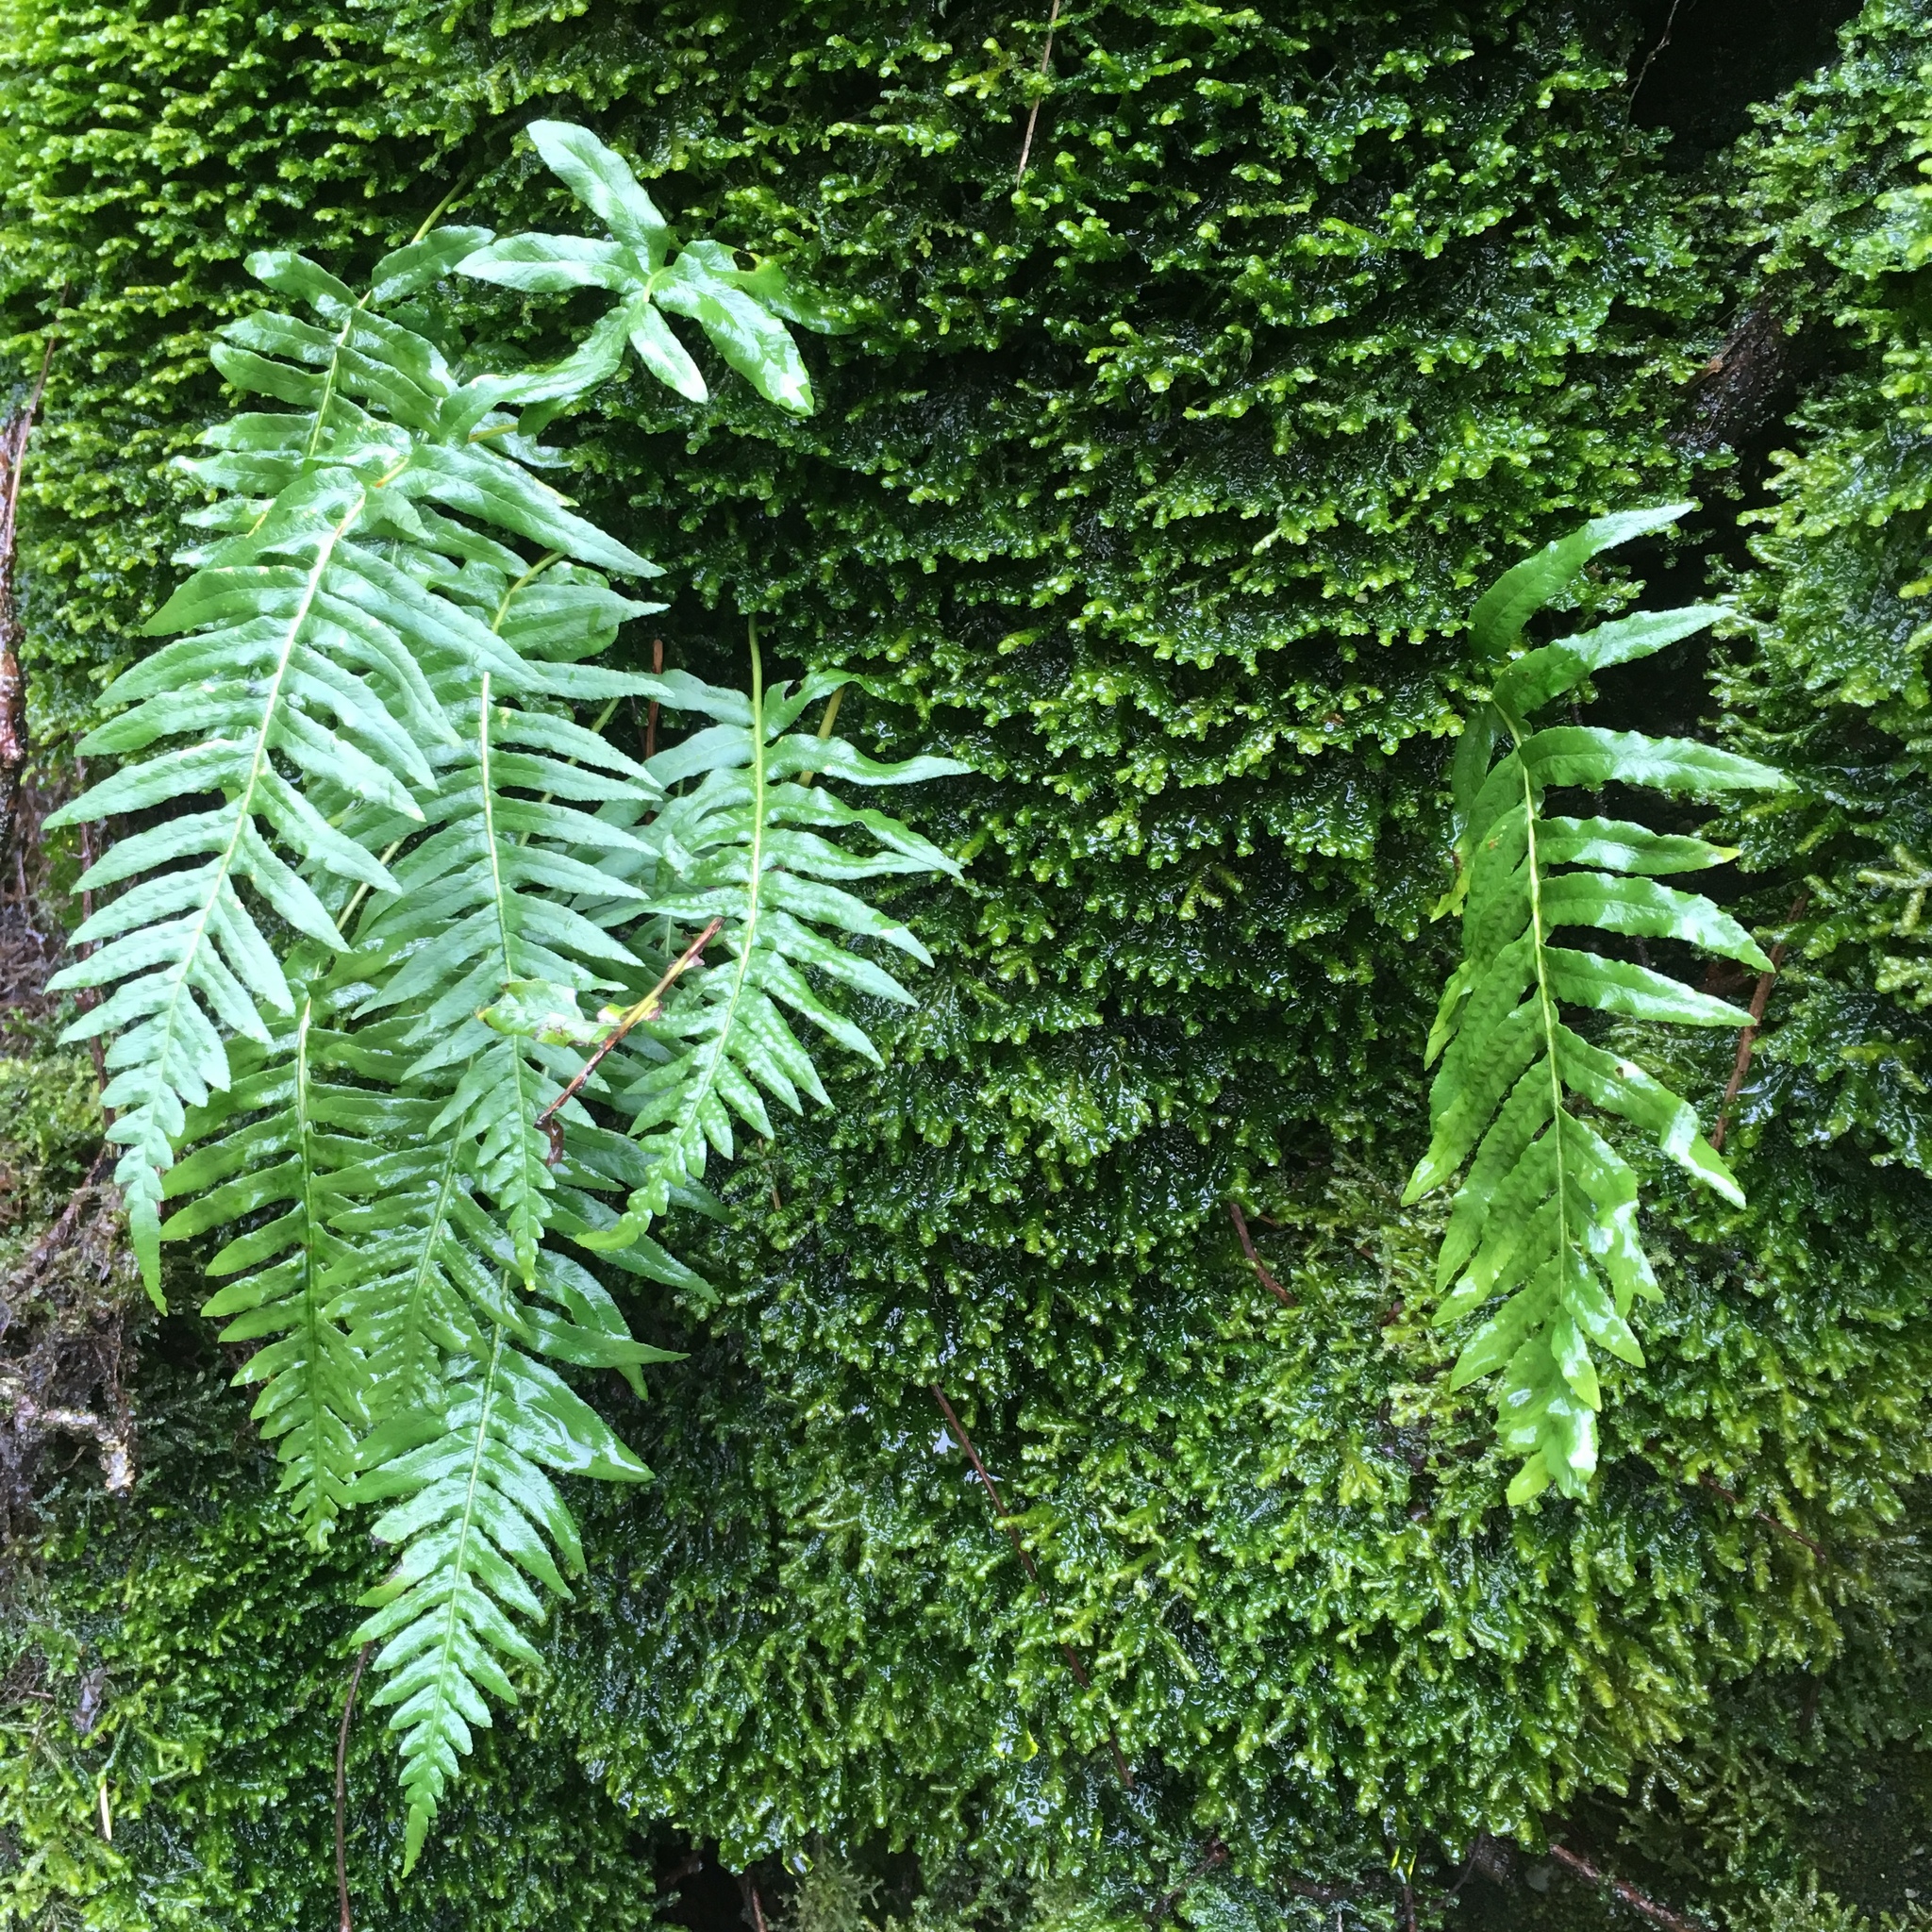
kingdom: Plantae
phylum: Tracheophyta
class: Polypodiopsida
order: Polypodiales
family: Polypodiaceae
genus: Polypodium
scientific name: Polypodium glycyrrhiza
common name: Licorice fern
